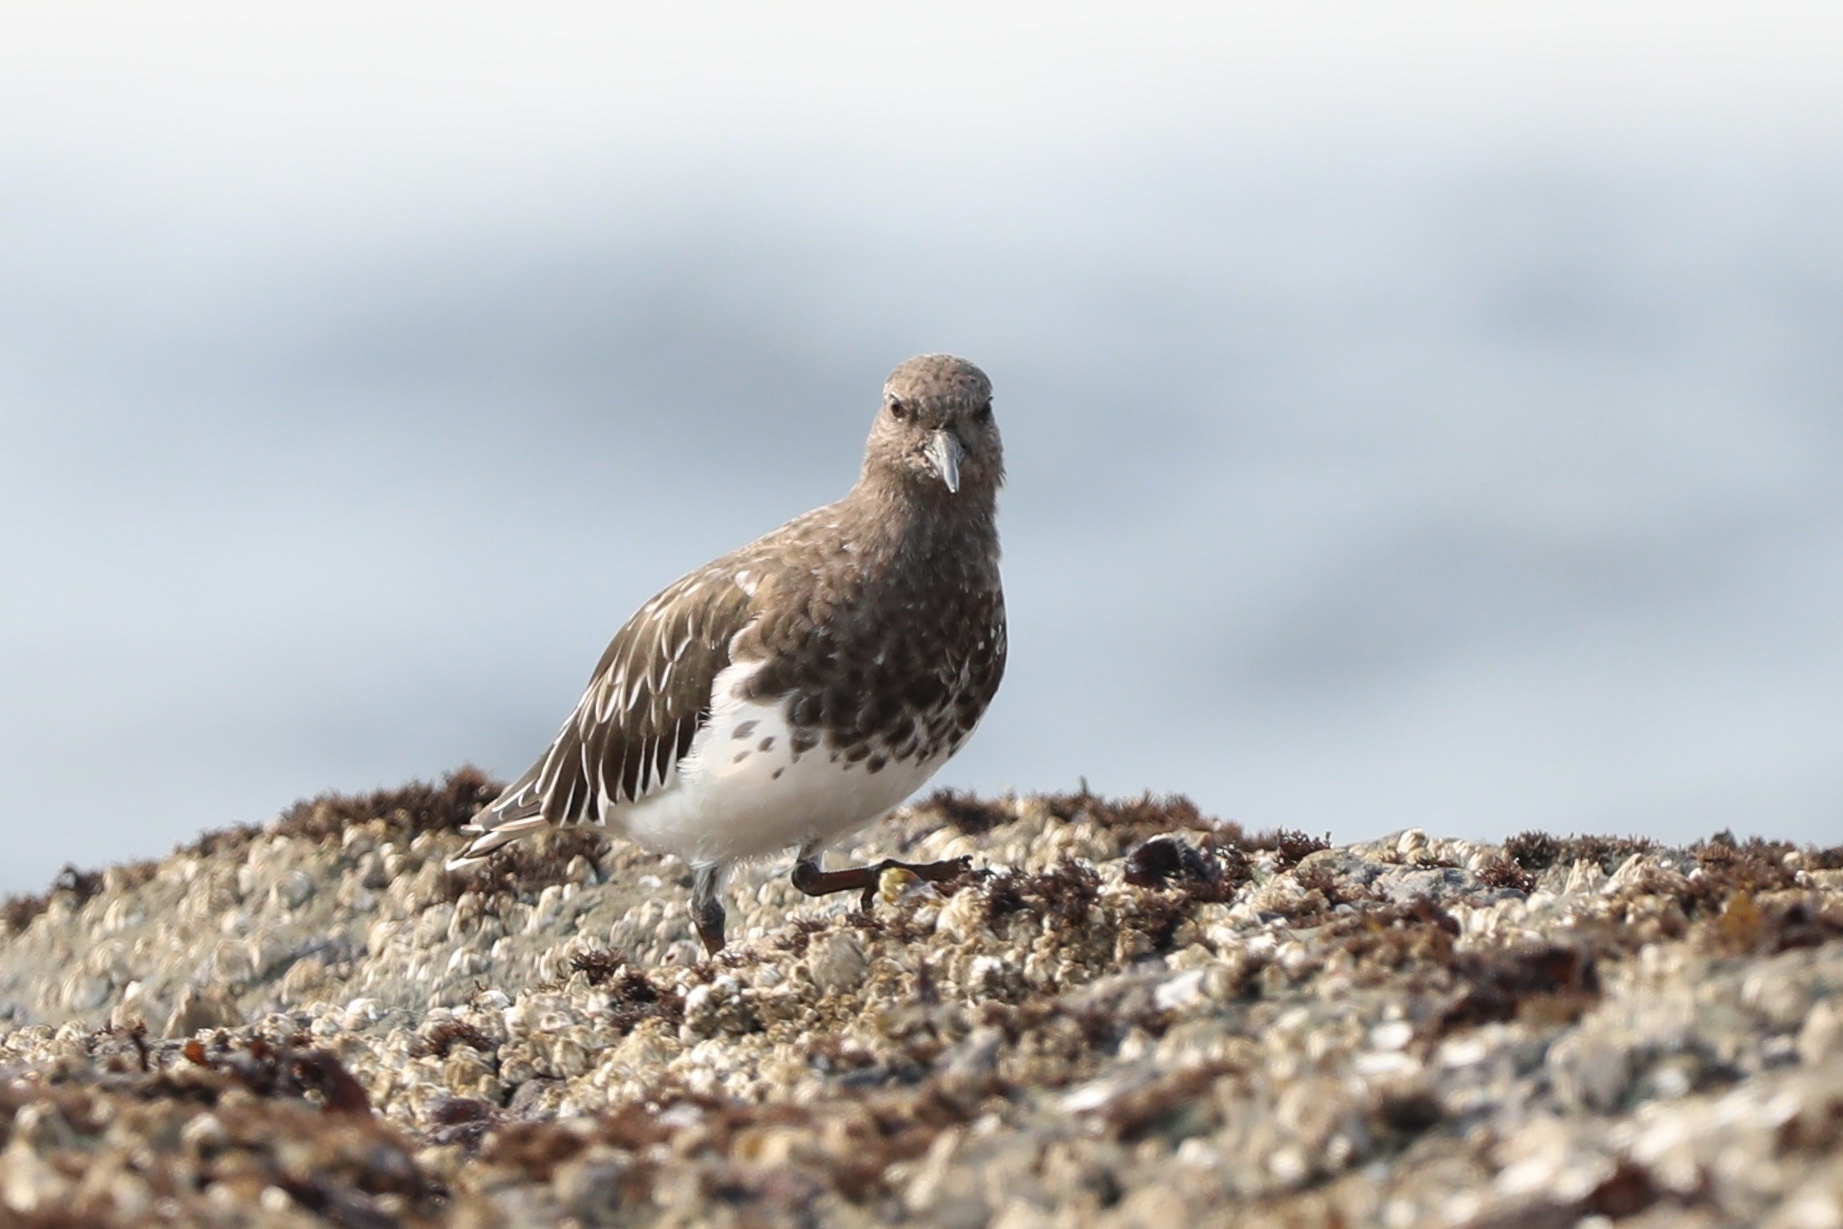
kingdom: Animalia
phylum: Chordata
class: Aves
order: Charadriiformes
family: Scolopacidae
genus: Arenaria
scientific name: Arenaria melanocephala
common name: Black turnstone
